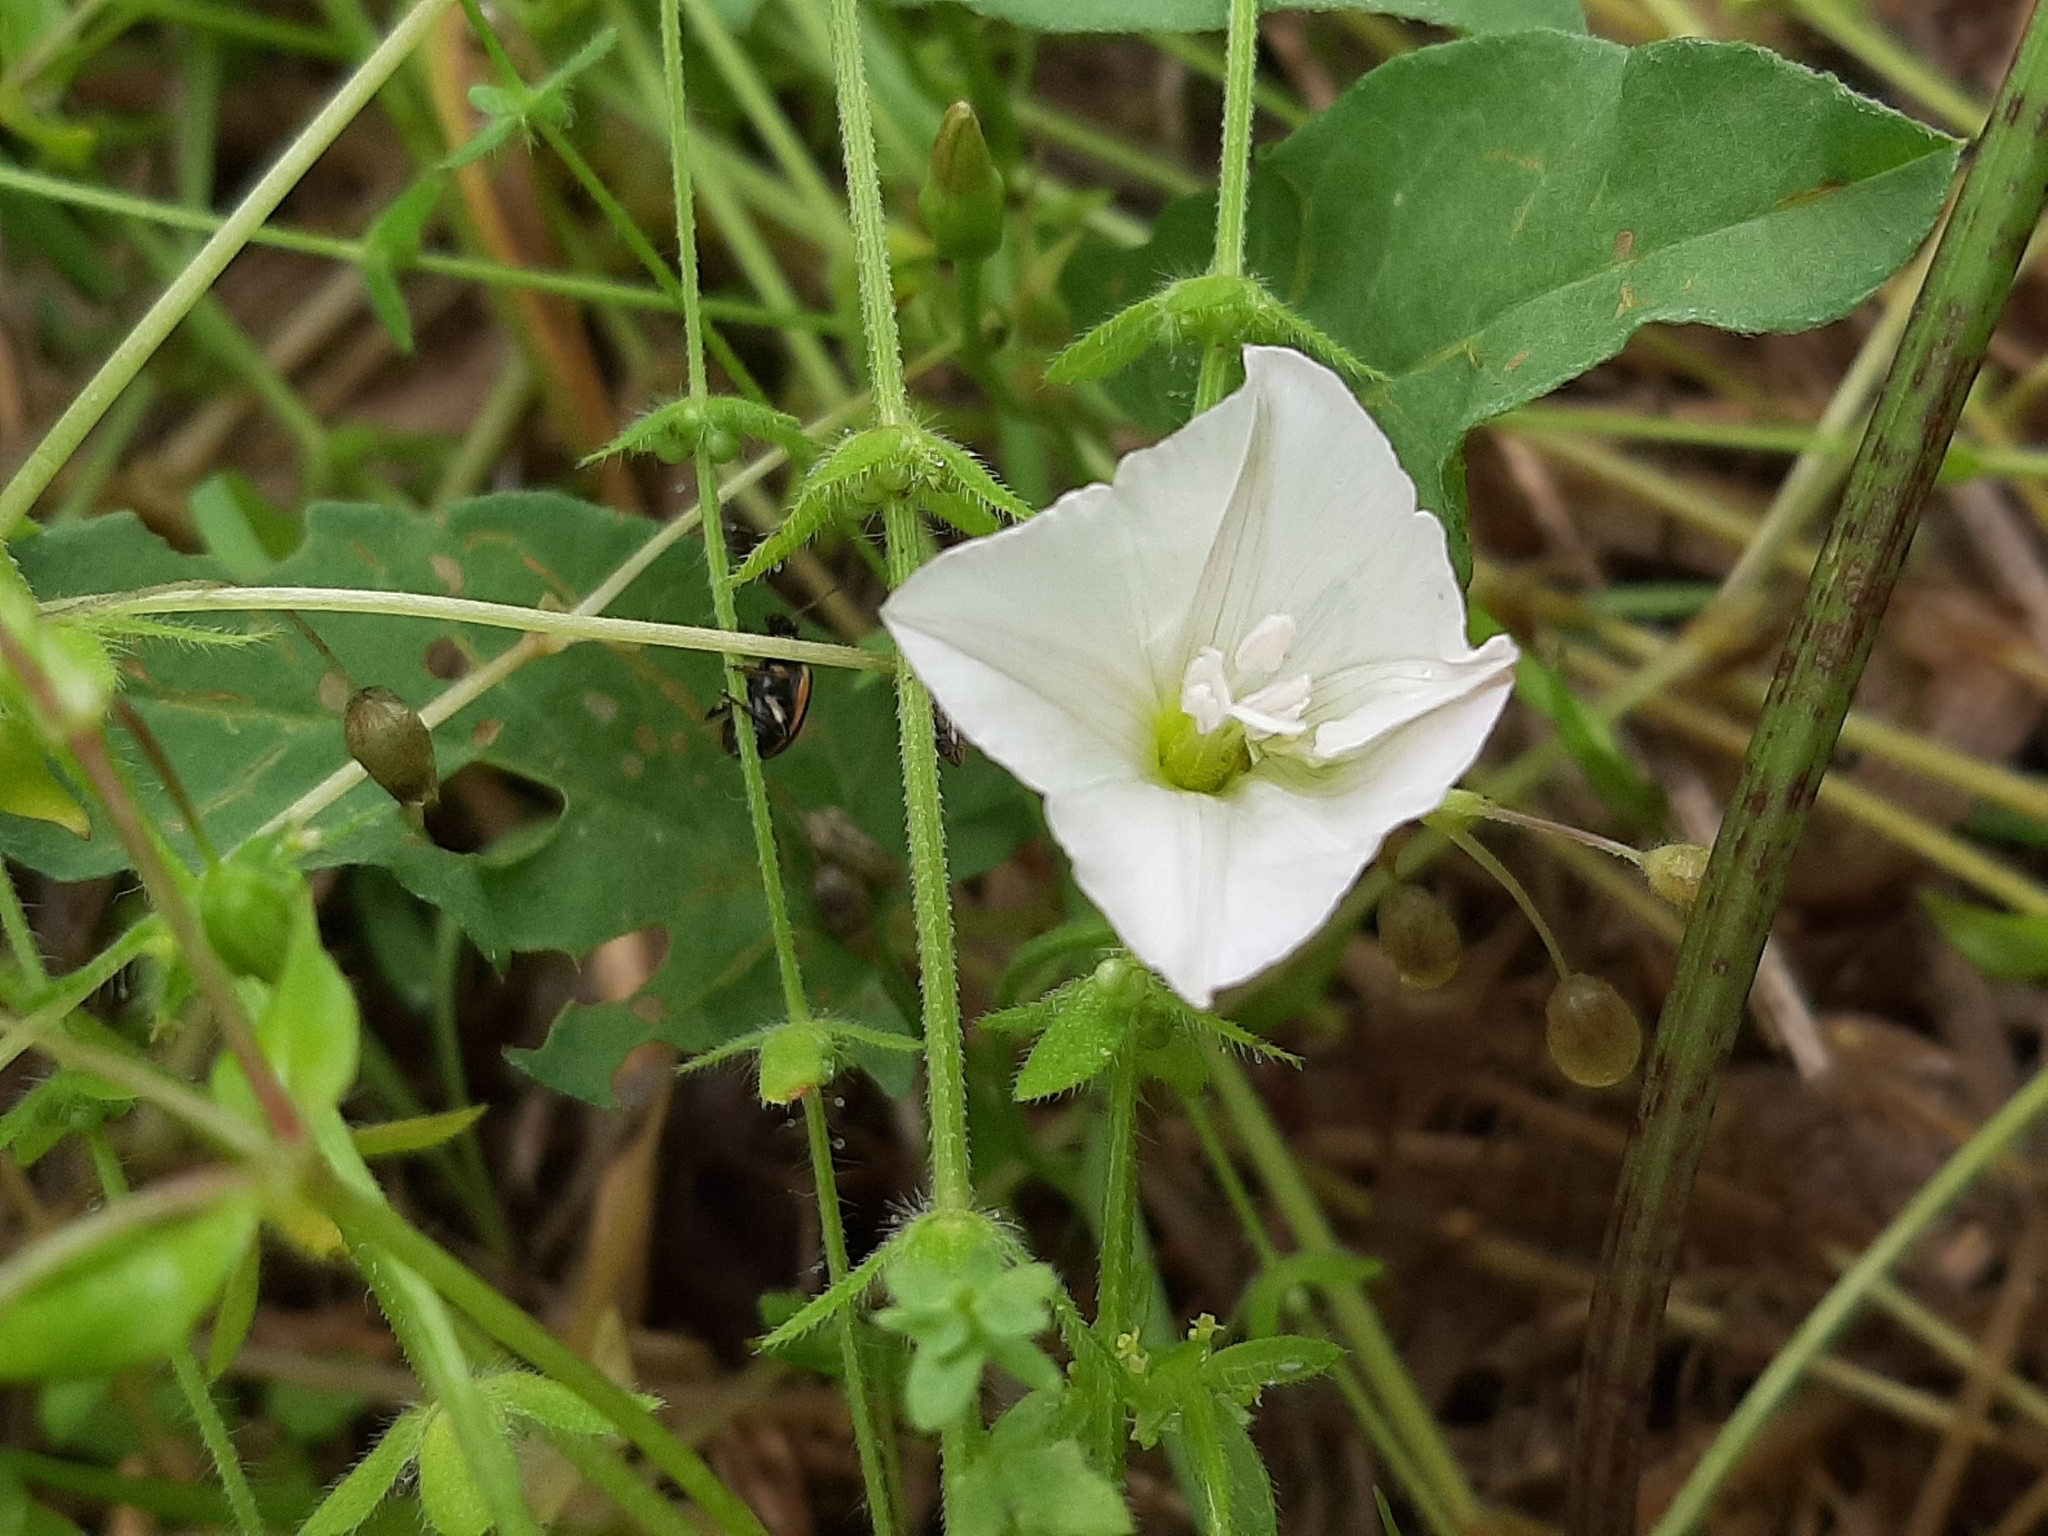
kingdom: Plantae
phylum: Tracheophyta
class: Magnoliopsida
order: Solanales
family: Convolvulaceae
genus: Convolvulus
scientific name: Convolvulus arvensis
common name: Field bindweed
